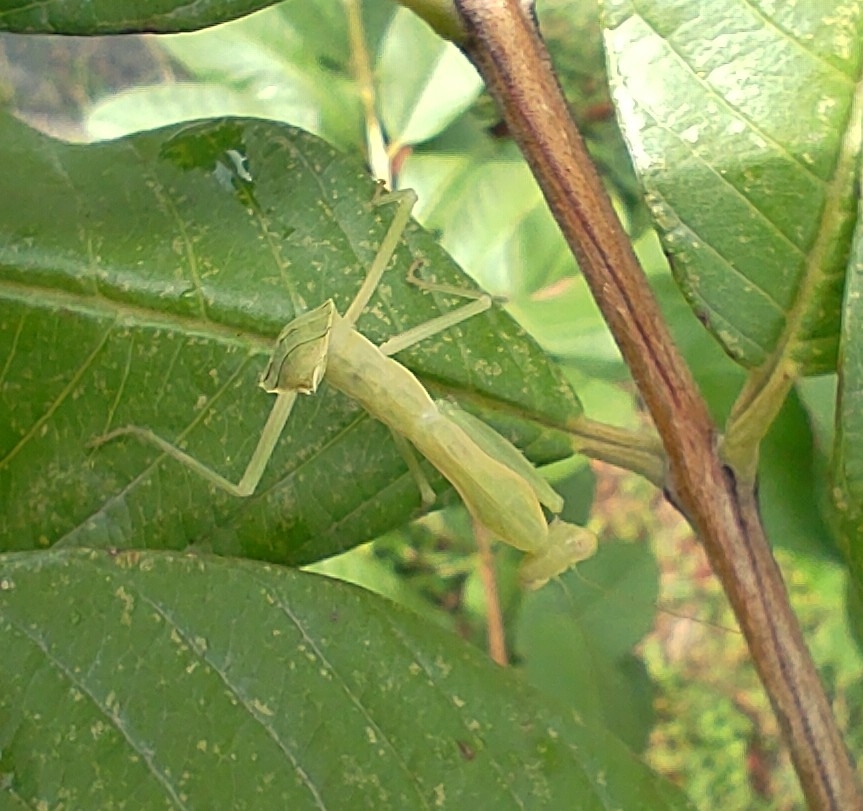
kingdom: Animalia
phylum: Arthropoda
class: Insecta
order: Mantodea
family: Mantidae
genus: Hierodula
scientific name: Hierodula patellifera
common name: Asian mantis
